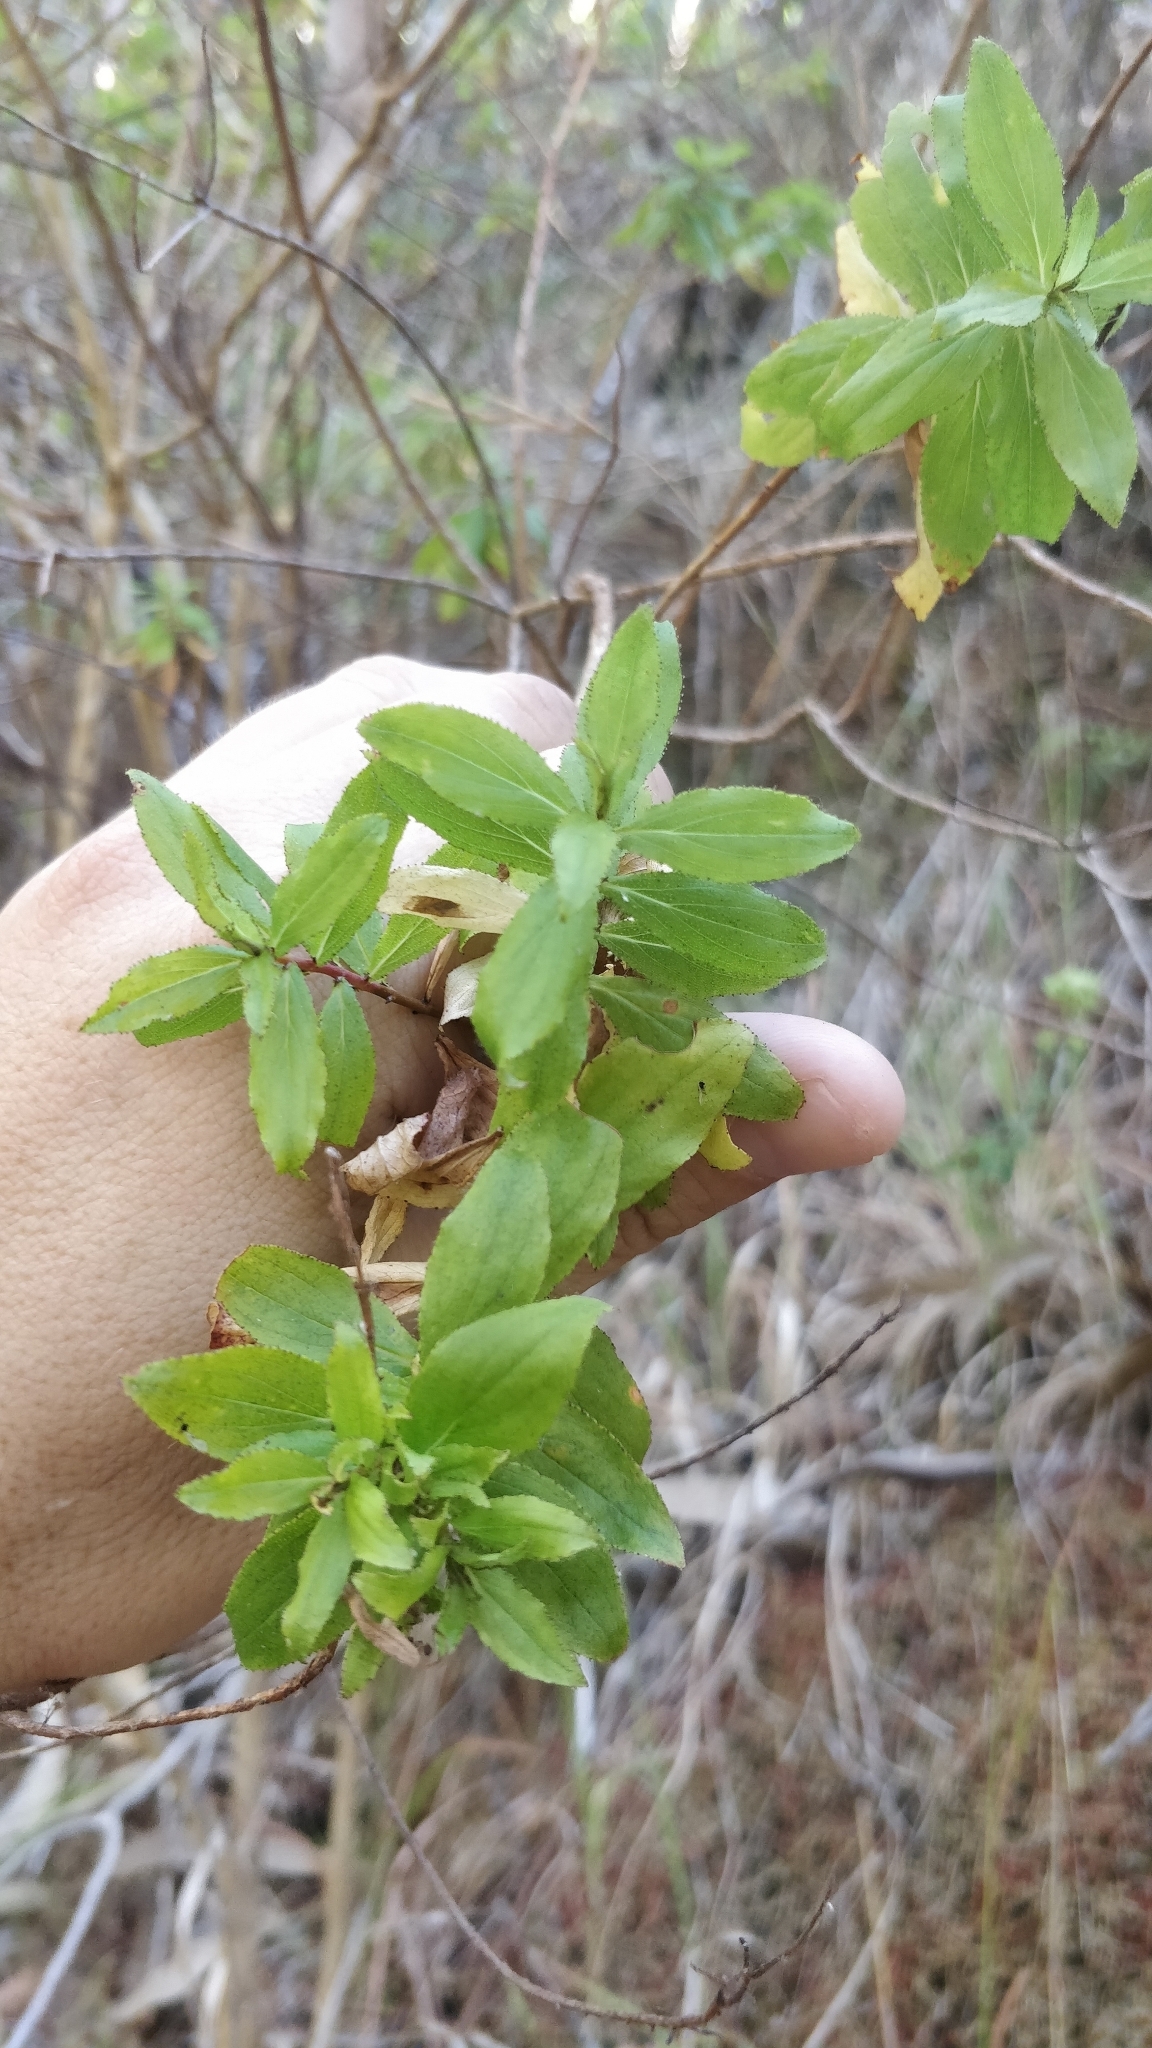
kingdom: Plantae
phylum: Tracheophyta
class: Magnoliopsida
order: Malpighiales
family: Hypericaceae
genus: Hypericum
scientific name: Hypericum glandulosum
